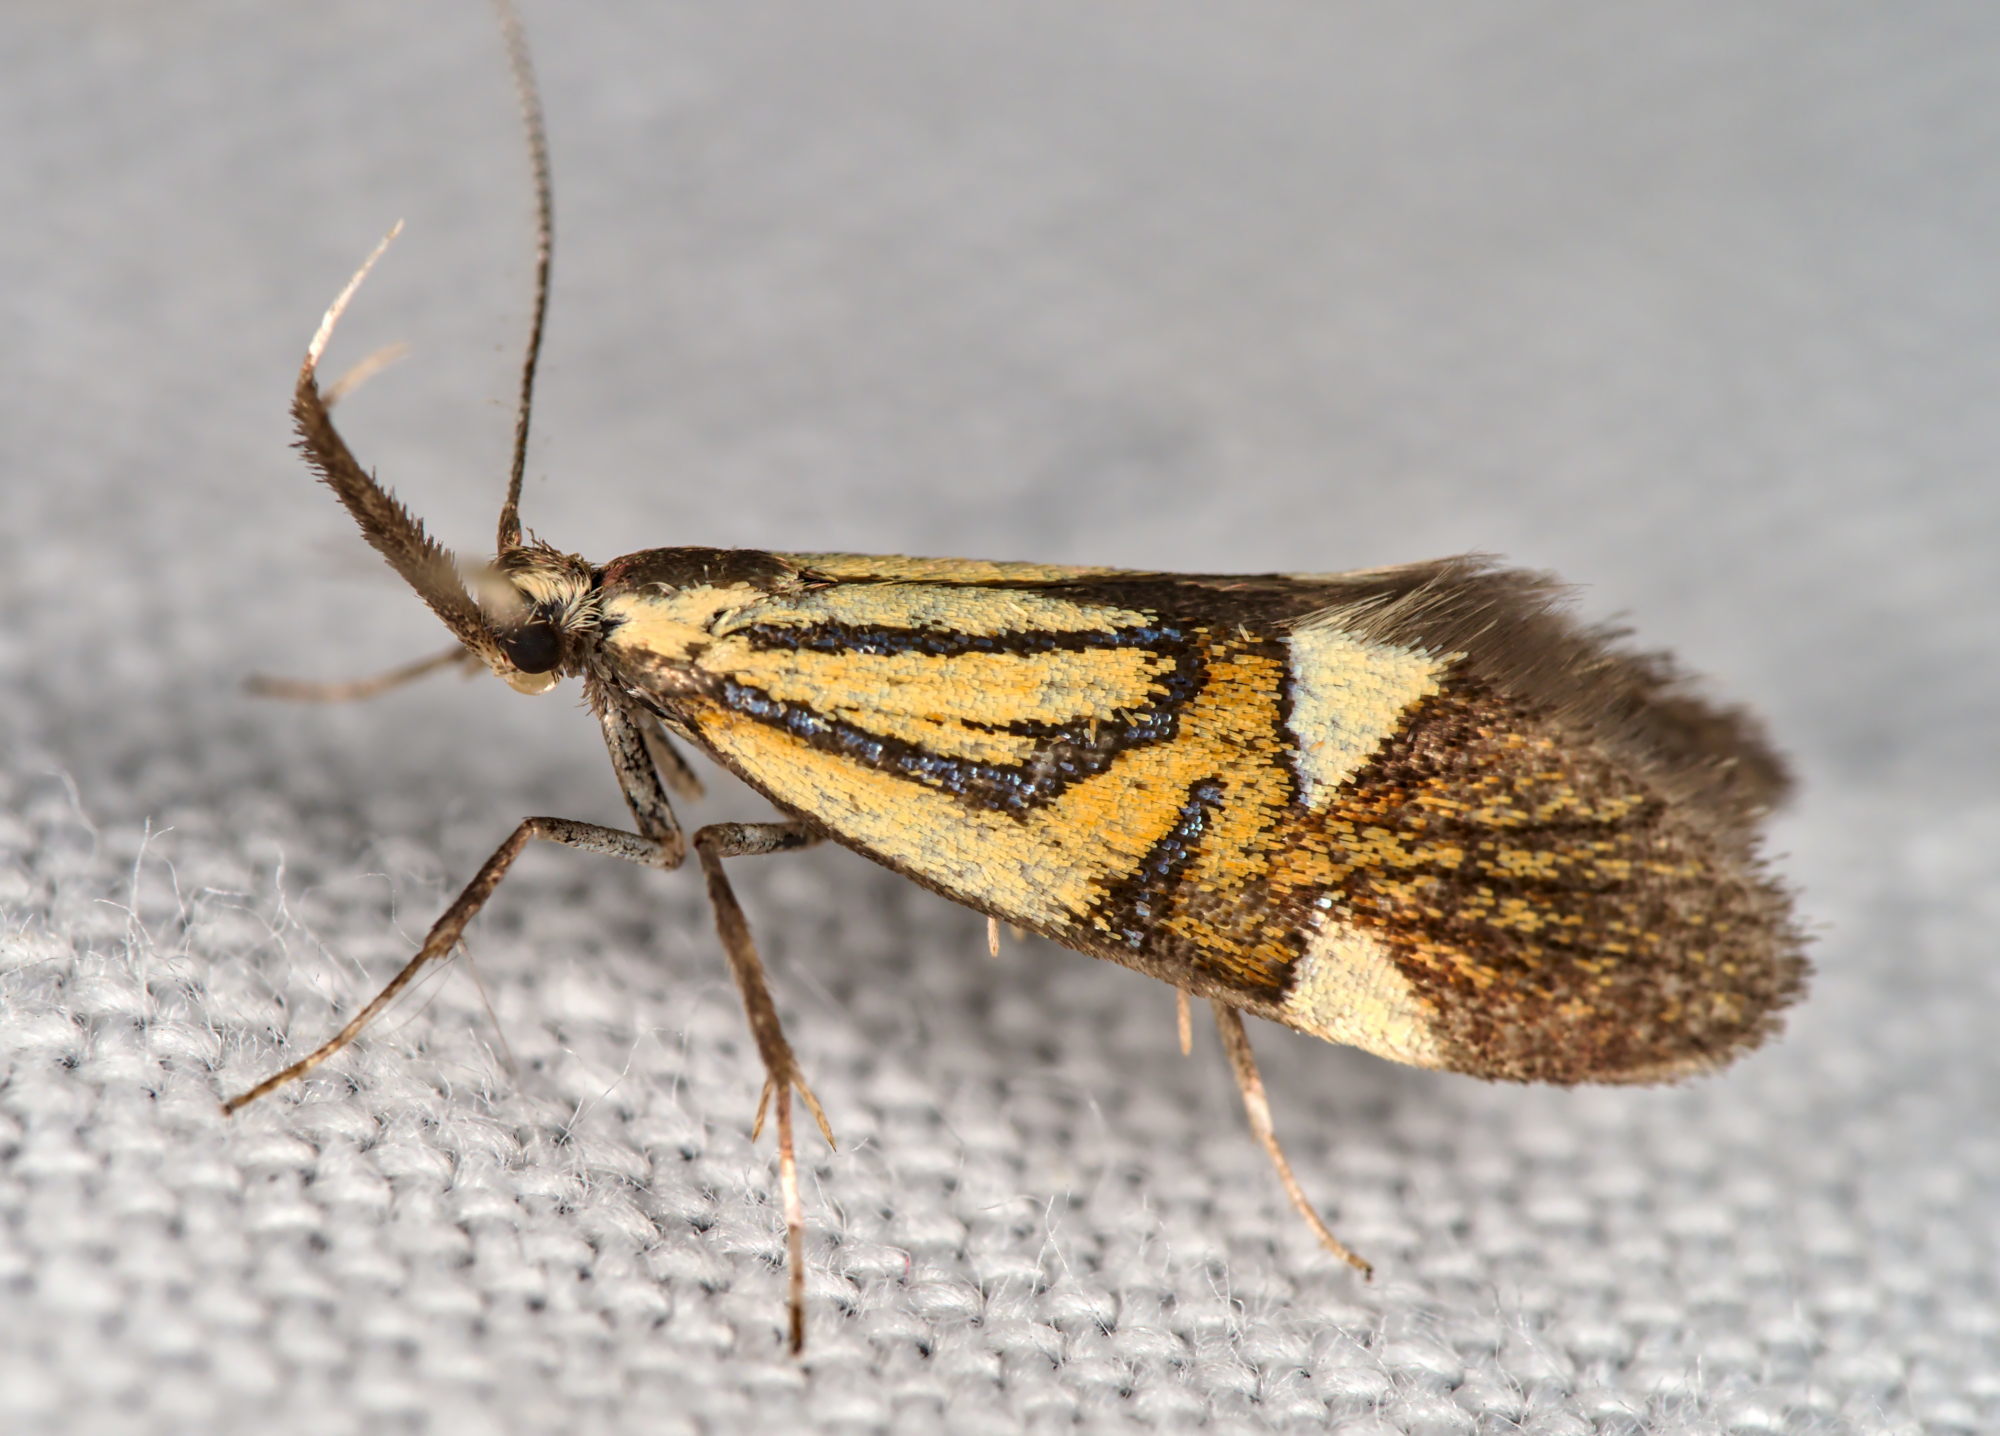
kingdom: Animalia
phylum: Arthropoda
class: Insecta
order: Lepidoptera
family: Oecophoridae
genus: Oecophora
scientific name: Oecophora Alabonia geoffrella
